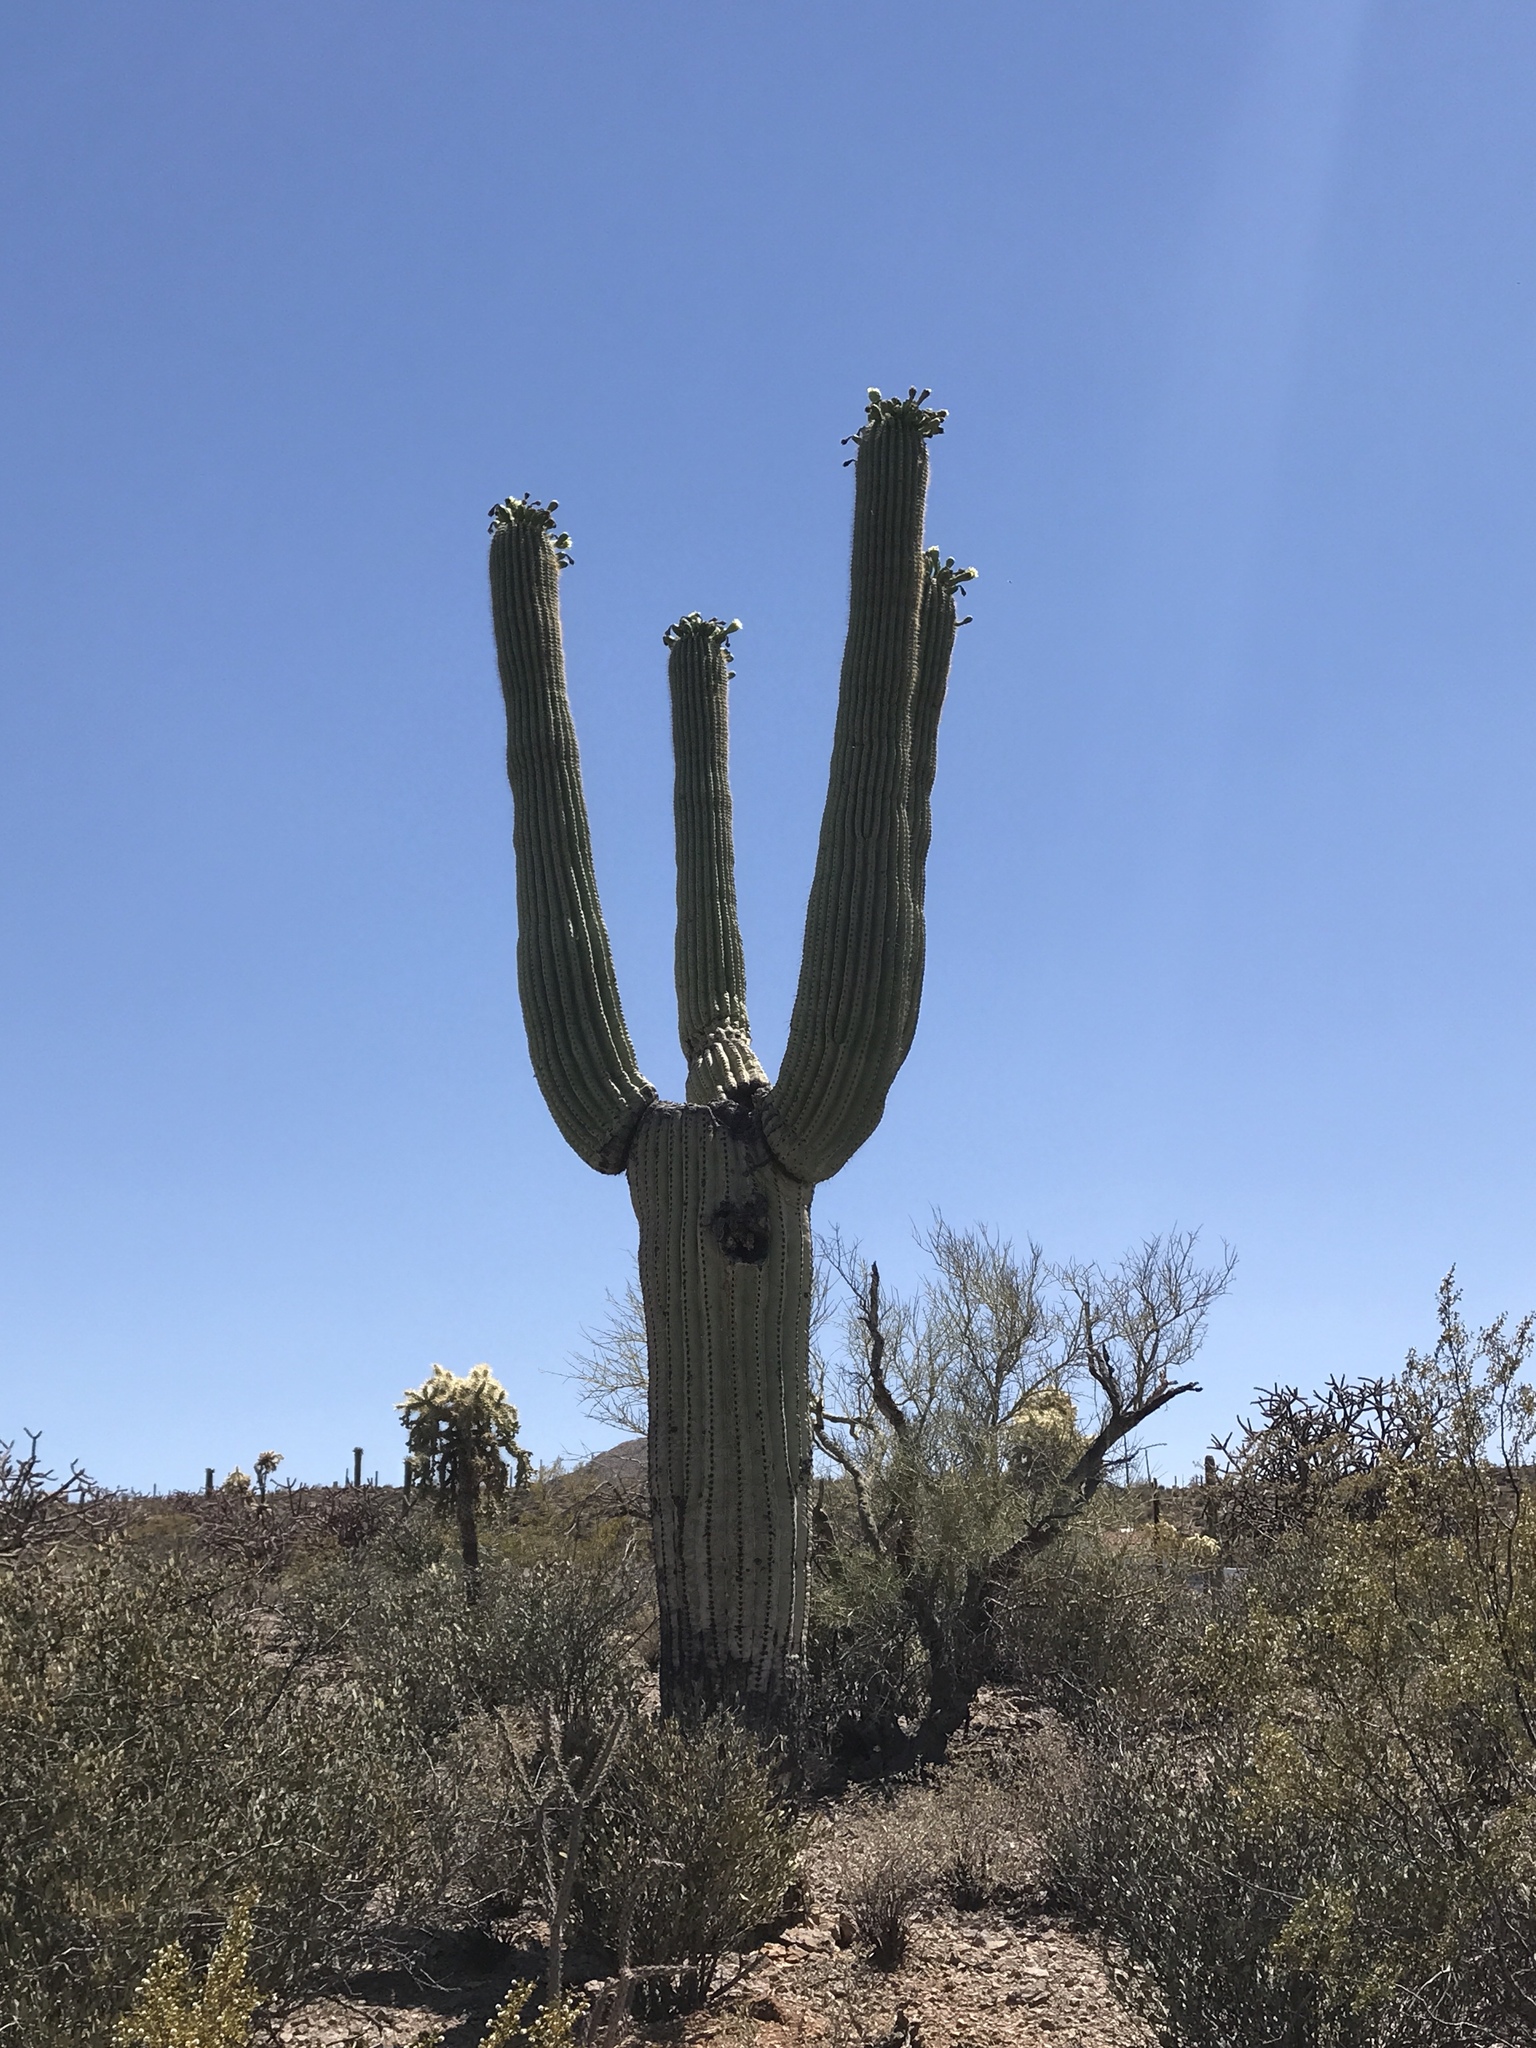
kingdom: Plantae
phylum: Tracheophyta
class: Magnoliopsida
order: Caryophyllales
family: Cactaceae
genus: Carnegiea
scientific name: Carnegiea gigantea
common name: Saguaro
